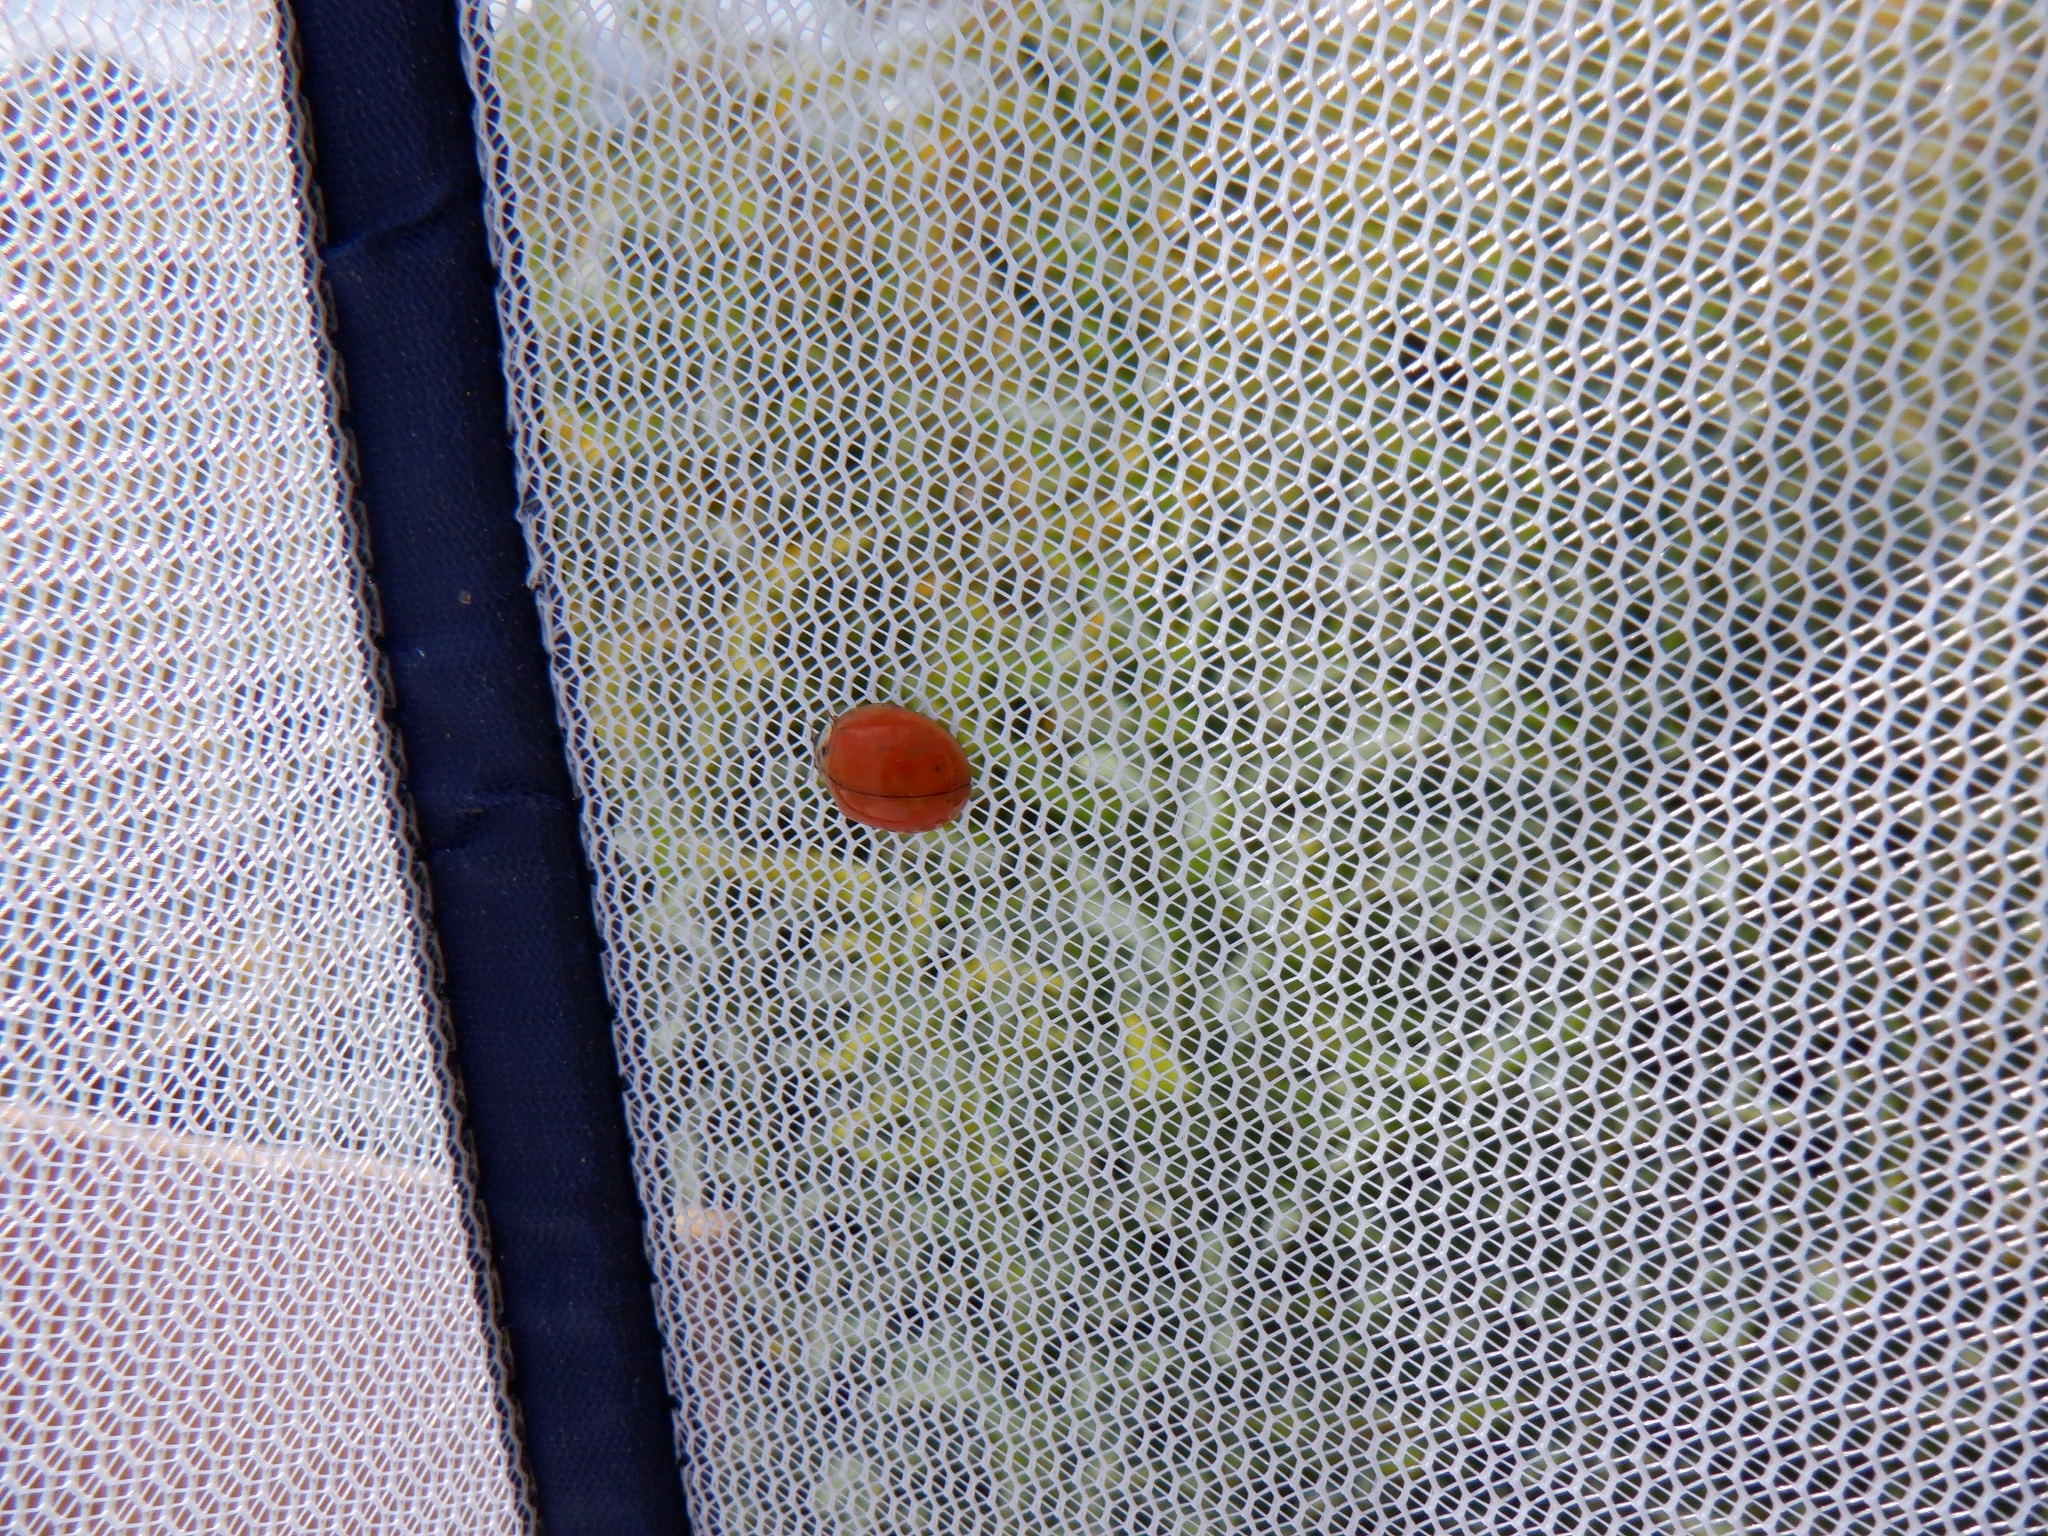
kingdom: Animalia
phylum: Arthropoda
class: Insecta
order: Coleoptera
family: Coccinellidae
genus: Harmonia
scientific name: Harmonia axyridis
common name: Harlequin ladybird
